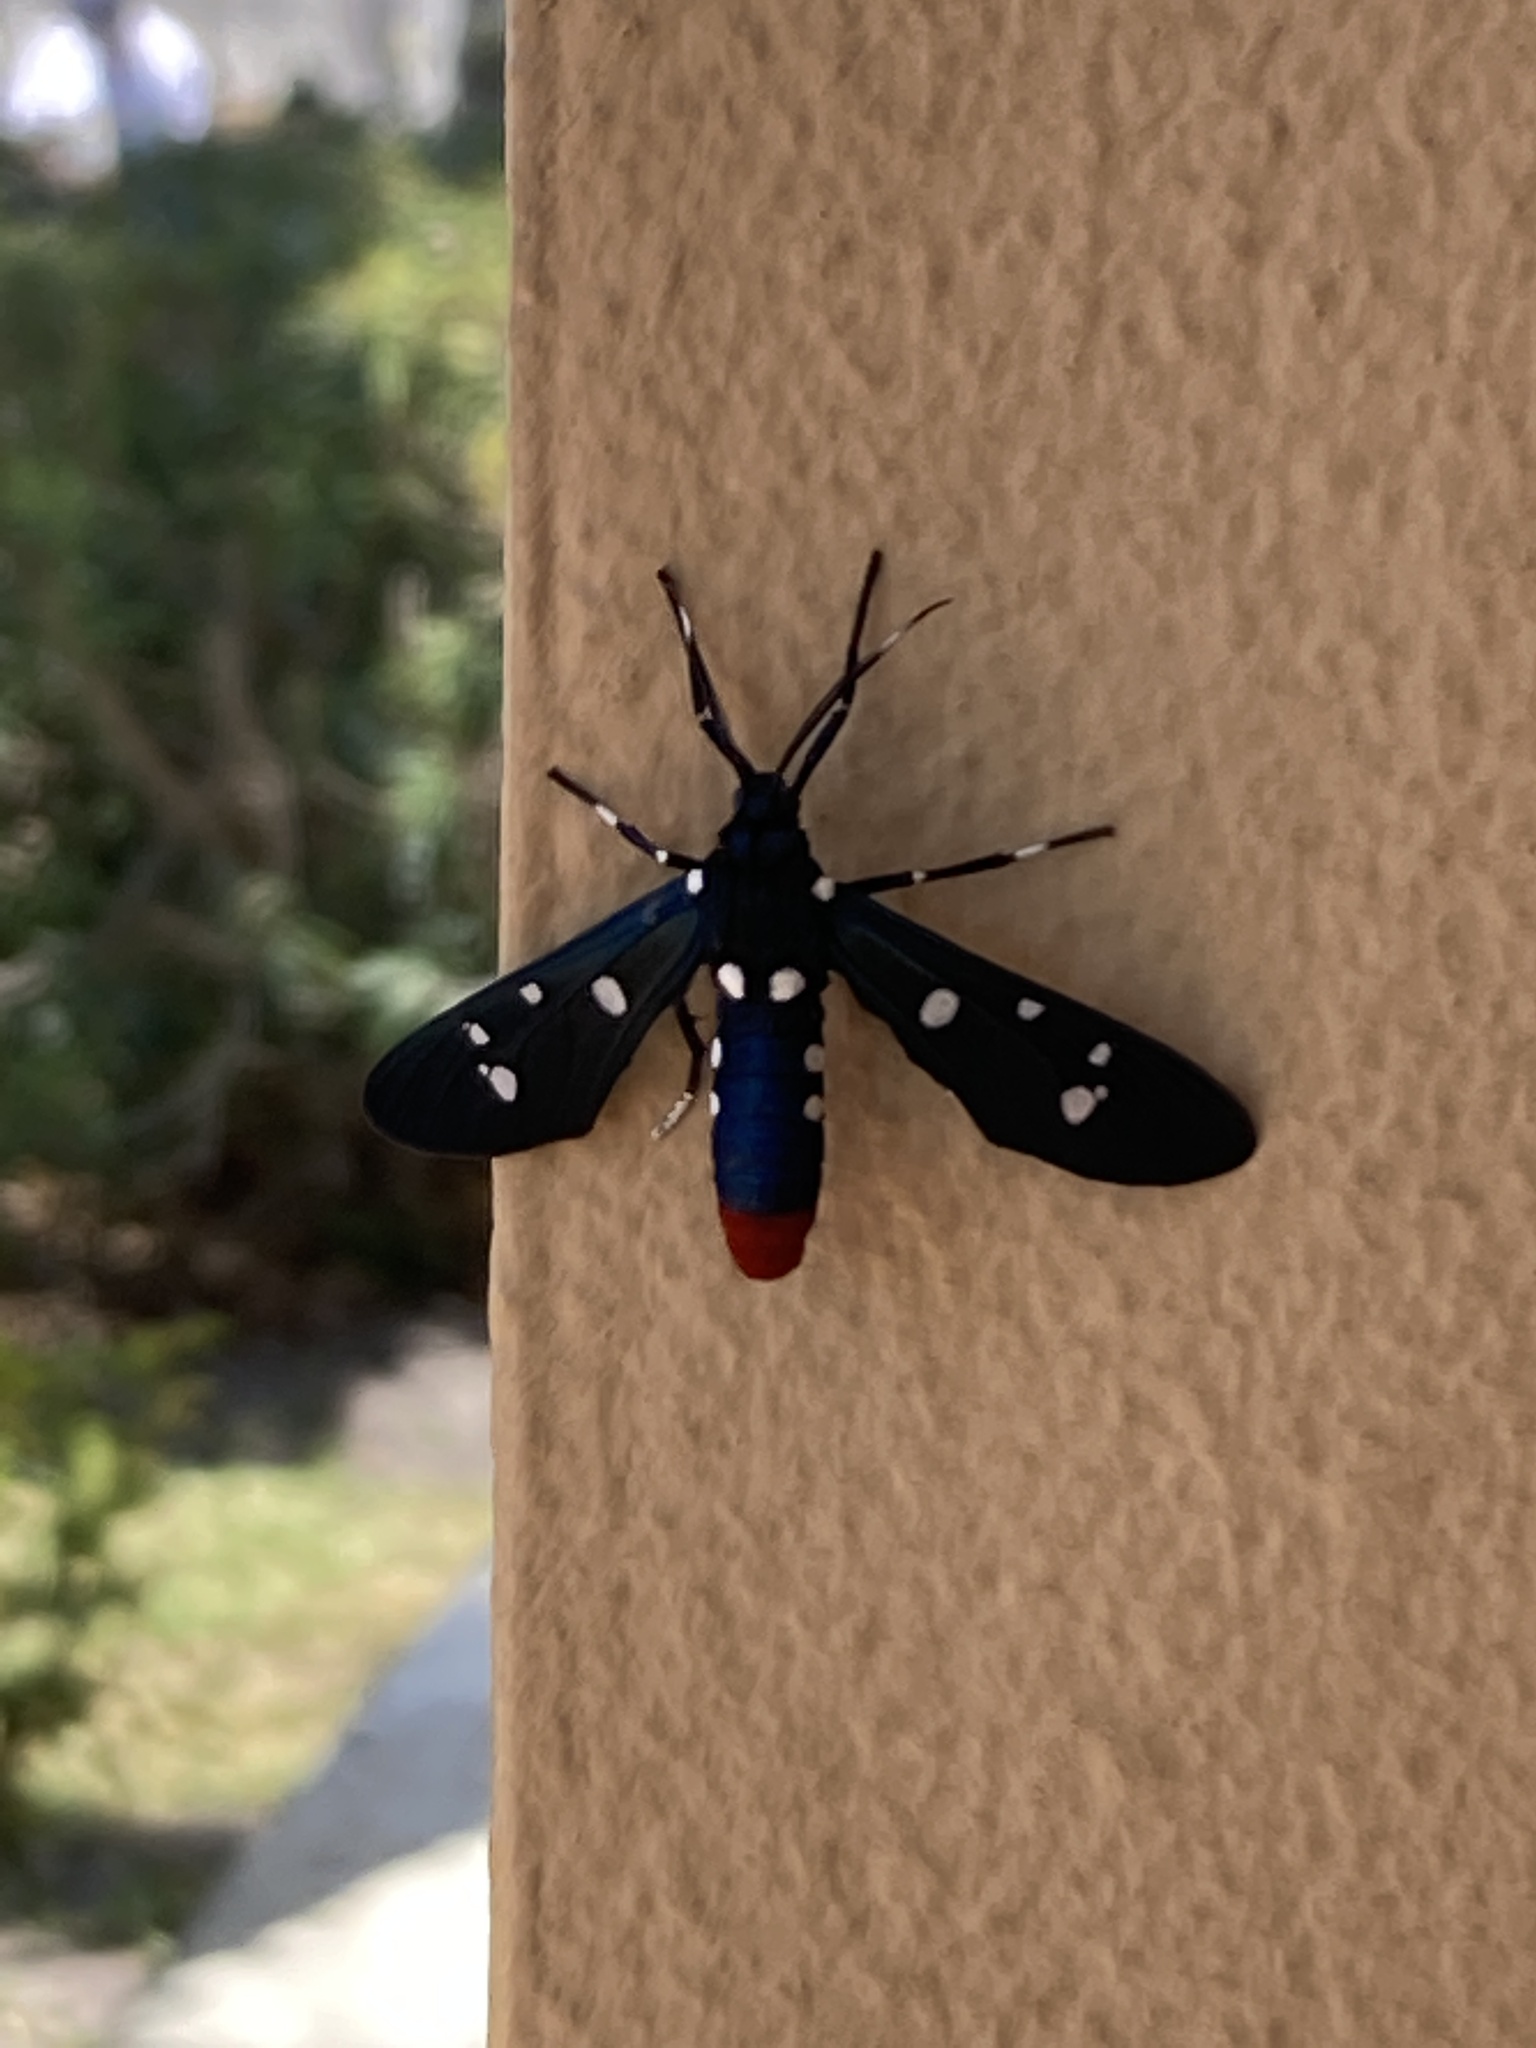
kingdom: Animalia
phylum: Arthropoda
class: Insecta
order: Lepidoptera
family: Erebidae
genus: Syntomeida
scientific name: Syntomeida epilais
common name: Polka-dot wasp moth
